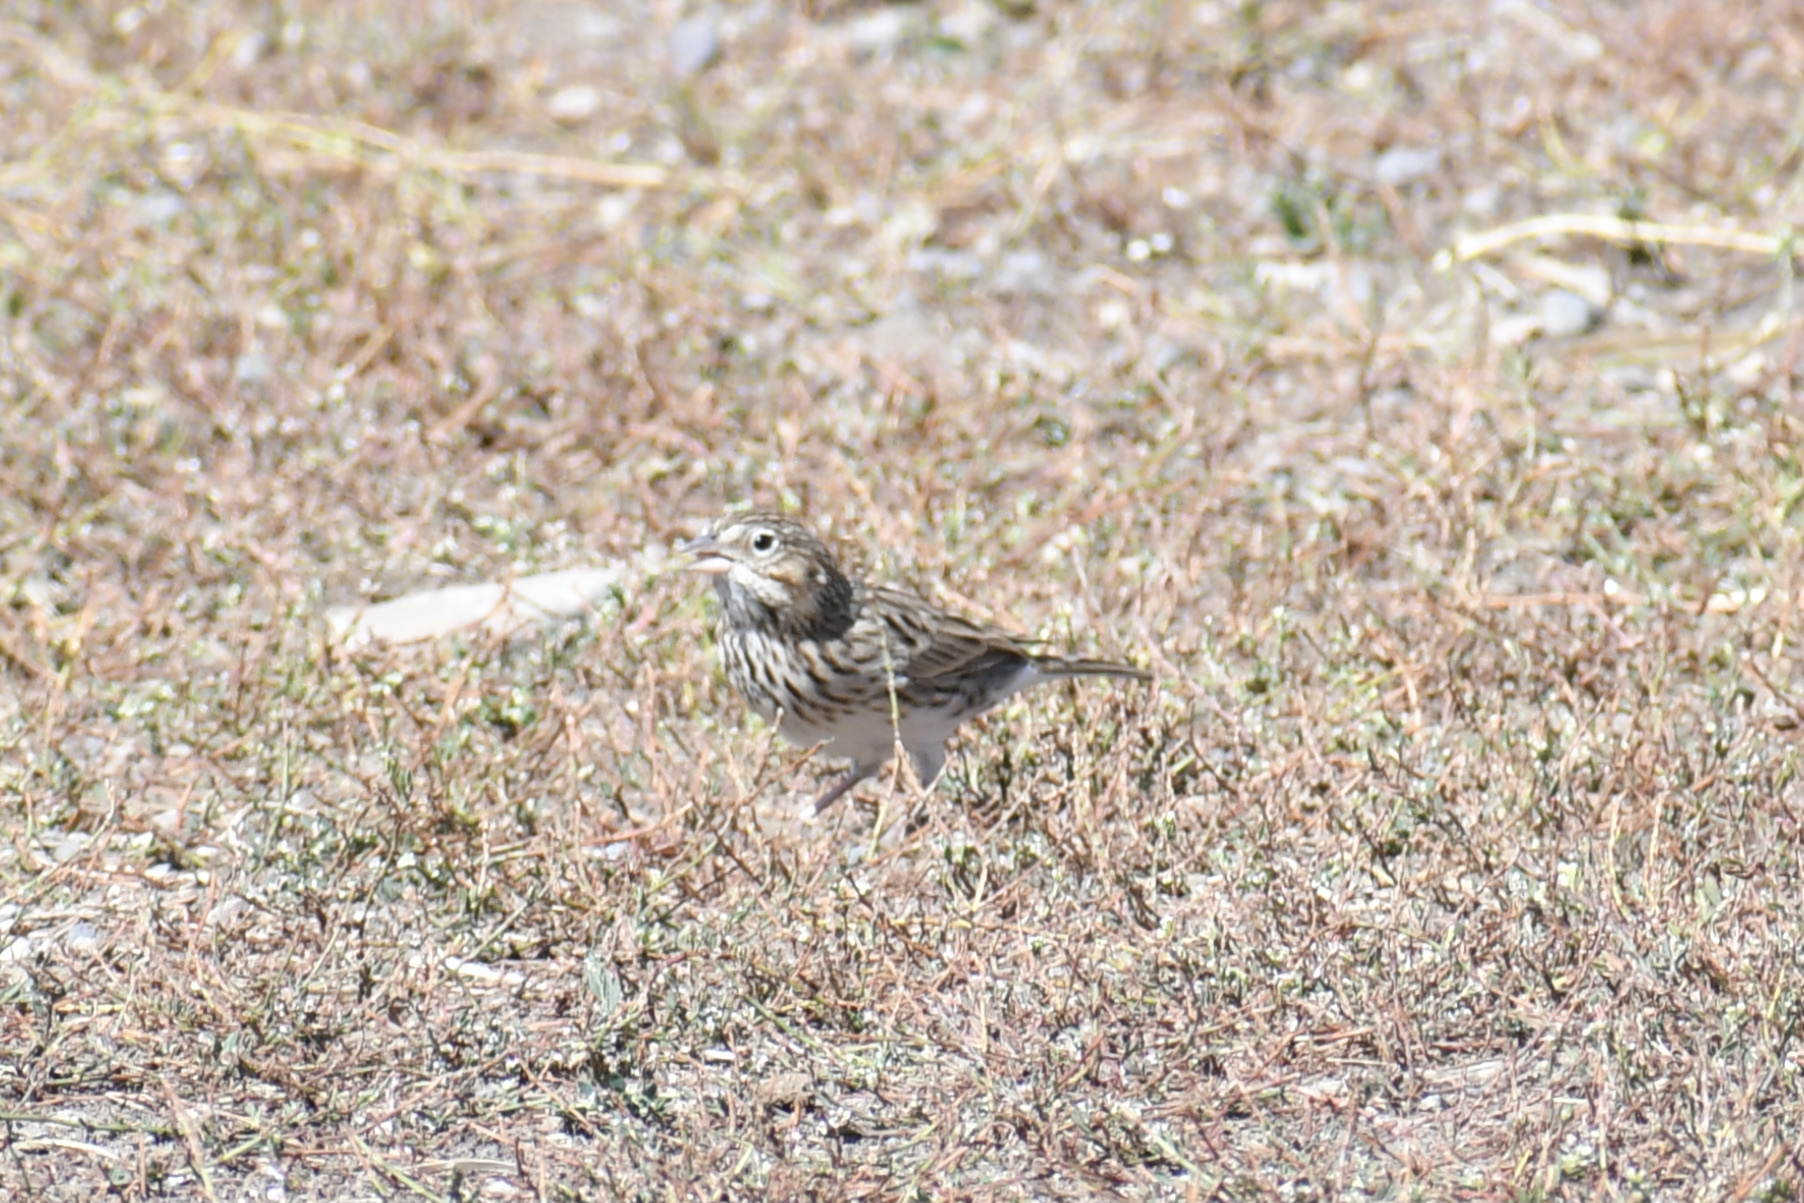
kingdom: Animalia
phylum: Chordata
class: Aves
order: Passeriformes
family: Passerellidae
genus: Pooecetes
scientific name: Pooecetes gramineus
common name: Vesper sparrow
